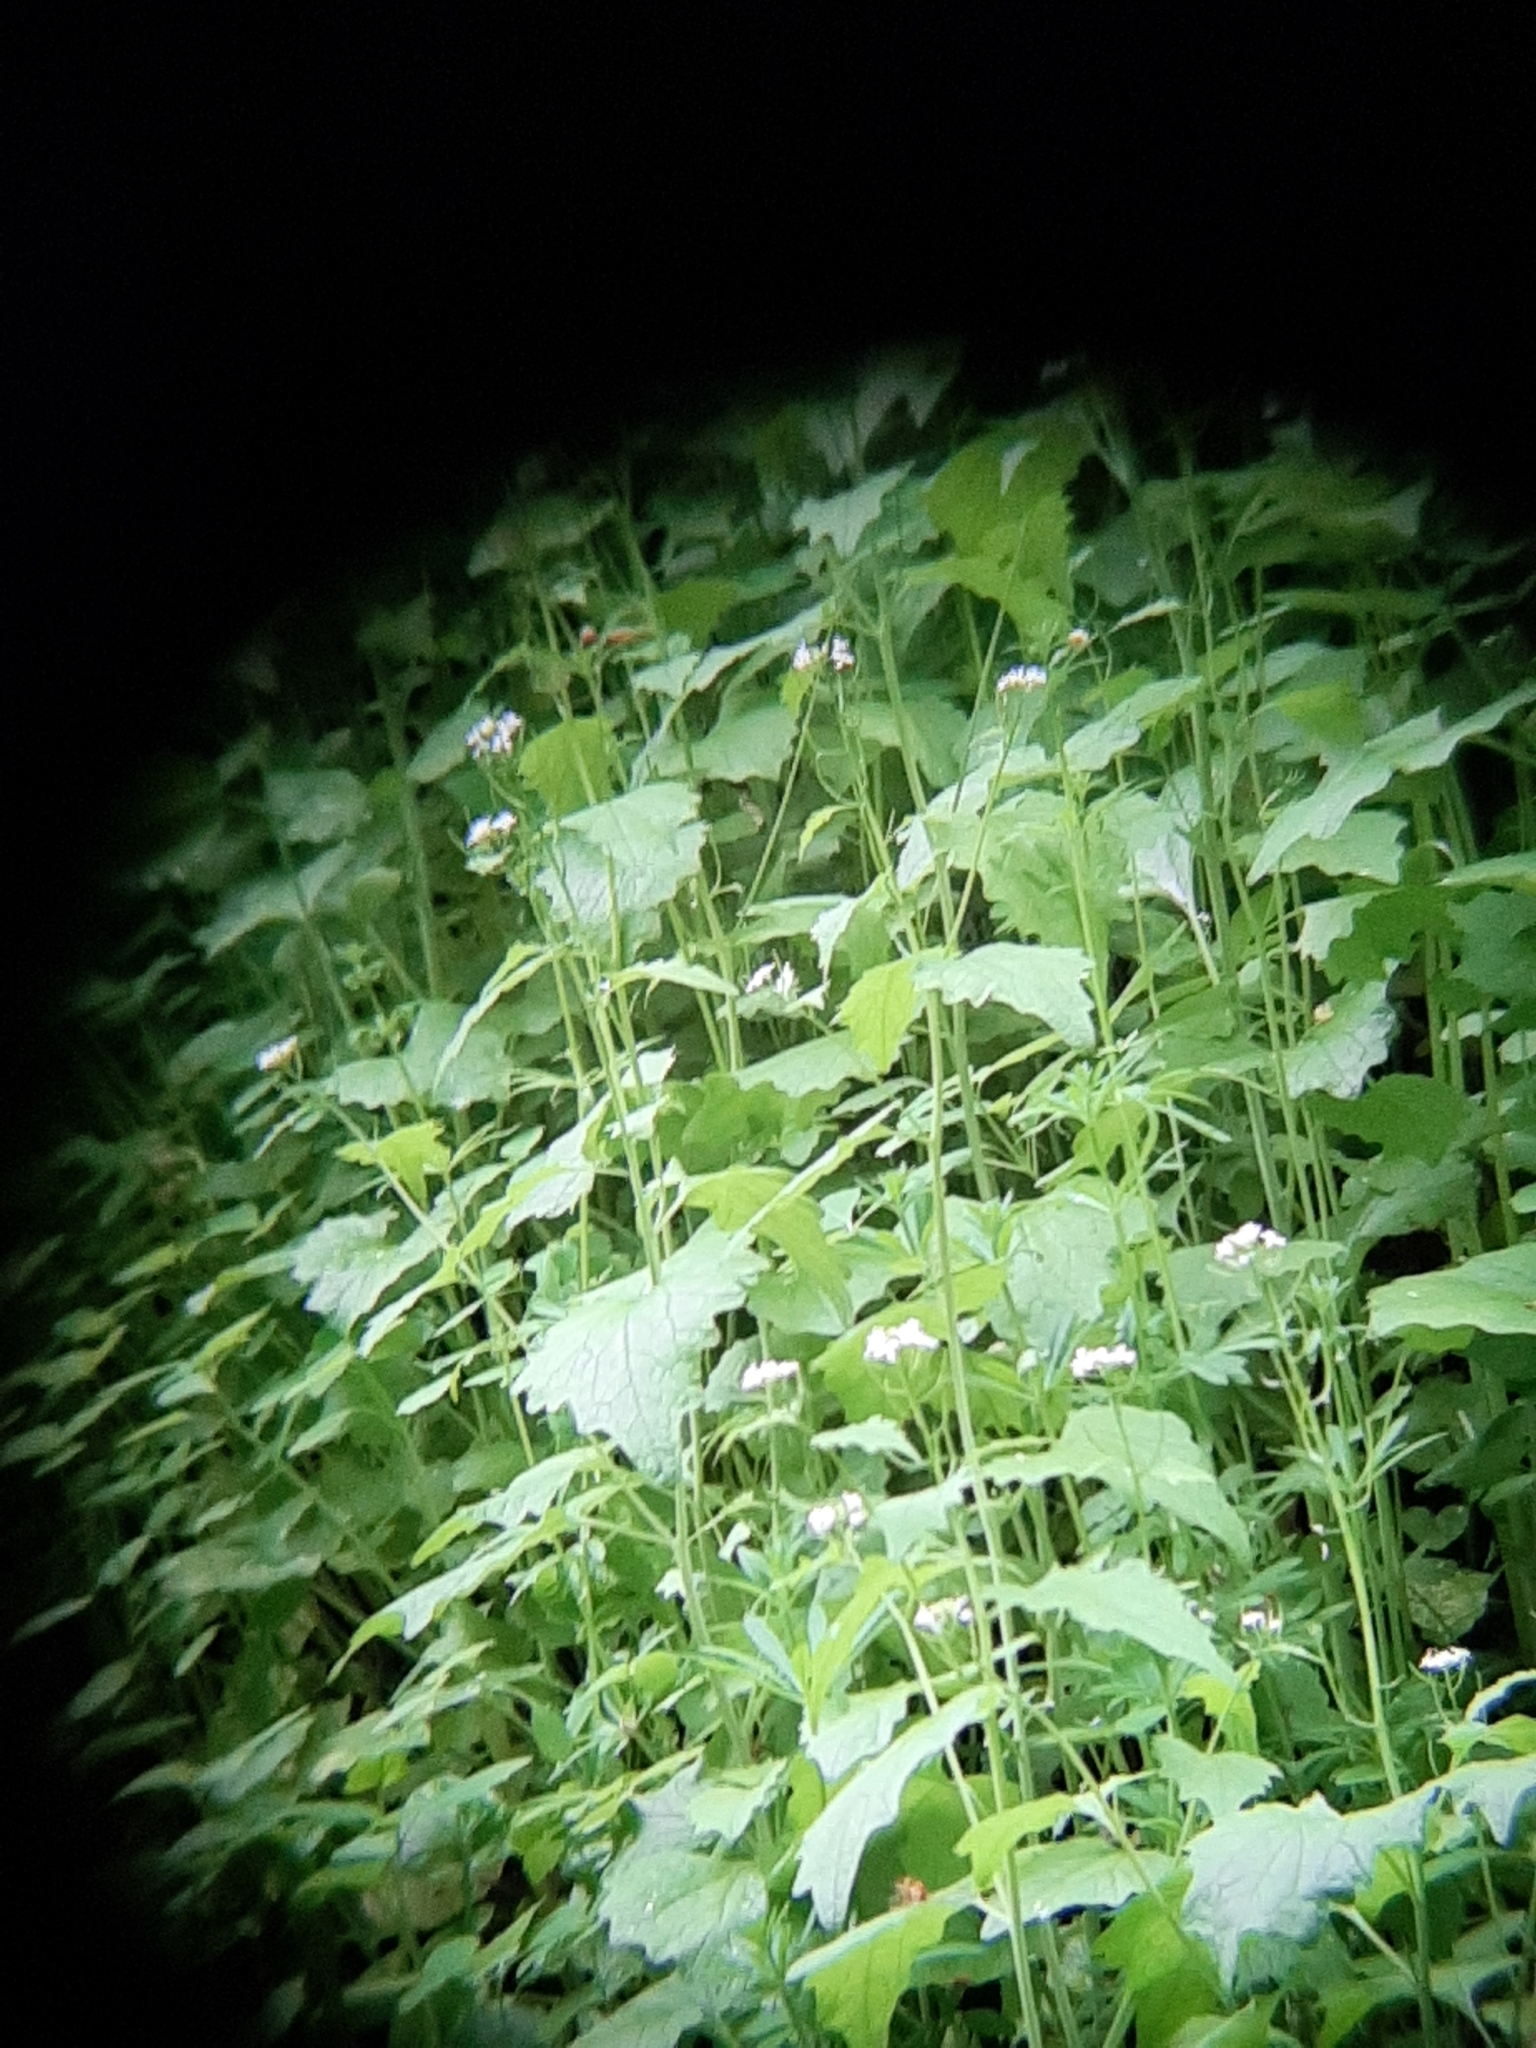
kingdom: Plantae
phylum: Tracheophyta
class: Magnoliopsida
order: Brassicales
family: Brassicaceae
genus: Alliaria
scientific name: Alliaria petiolata
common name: Garlic mustard
